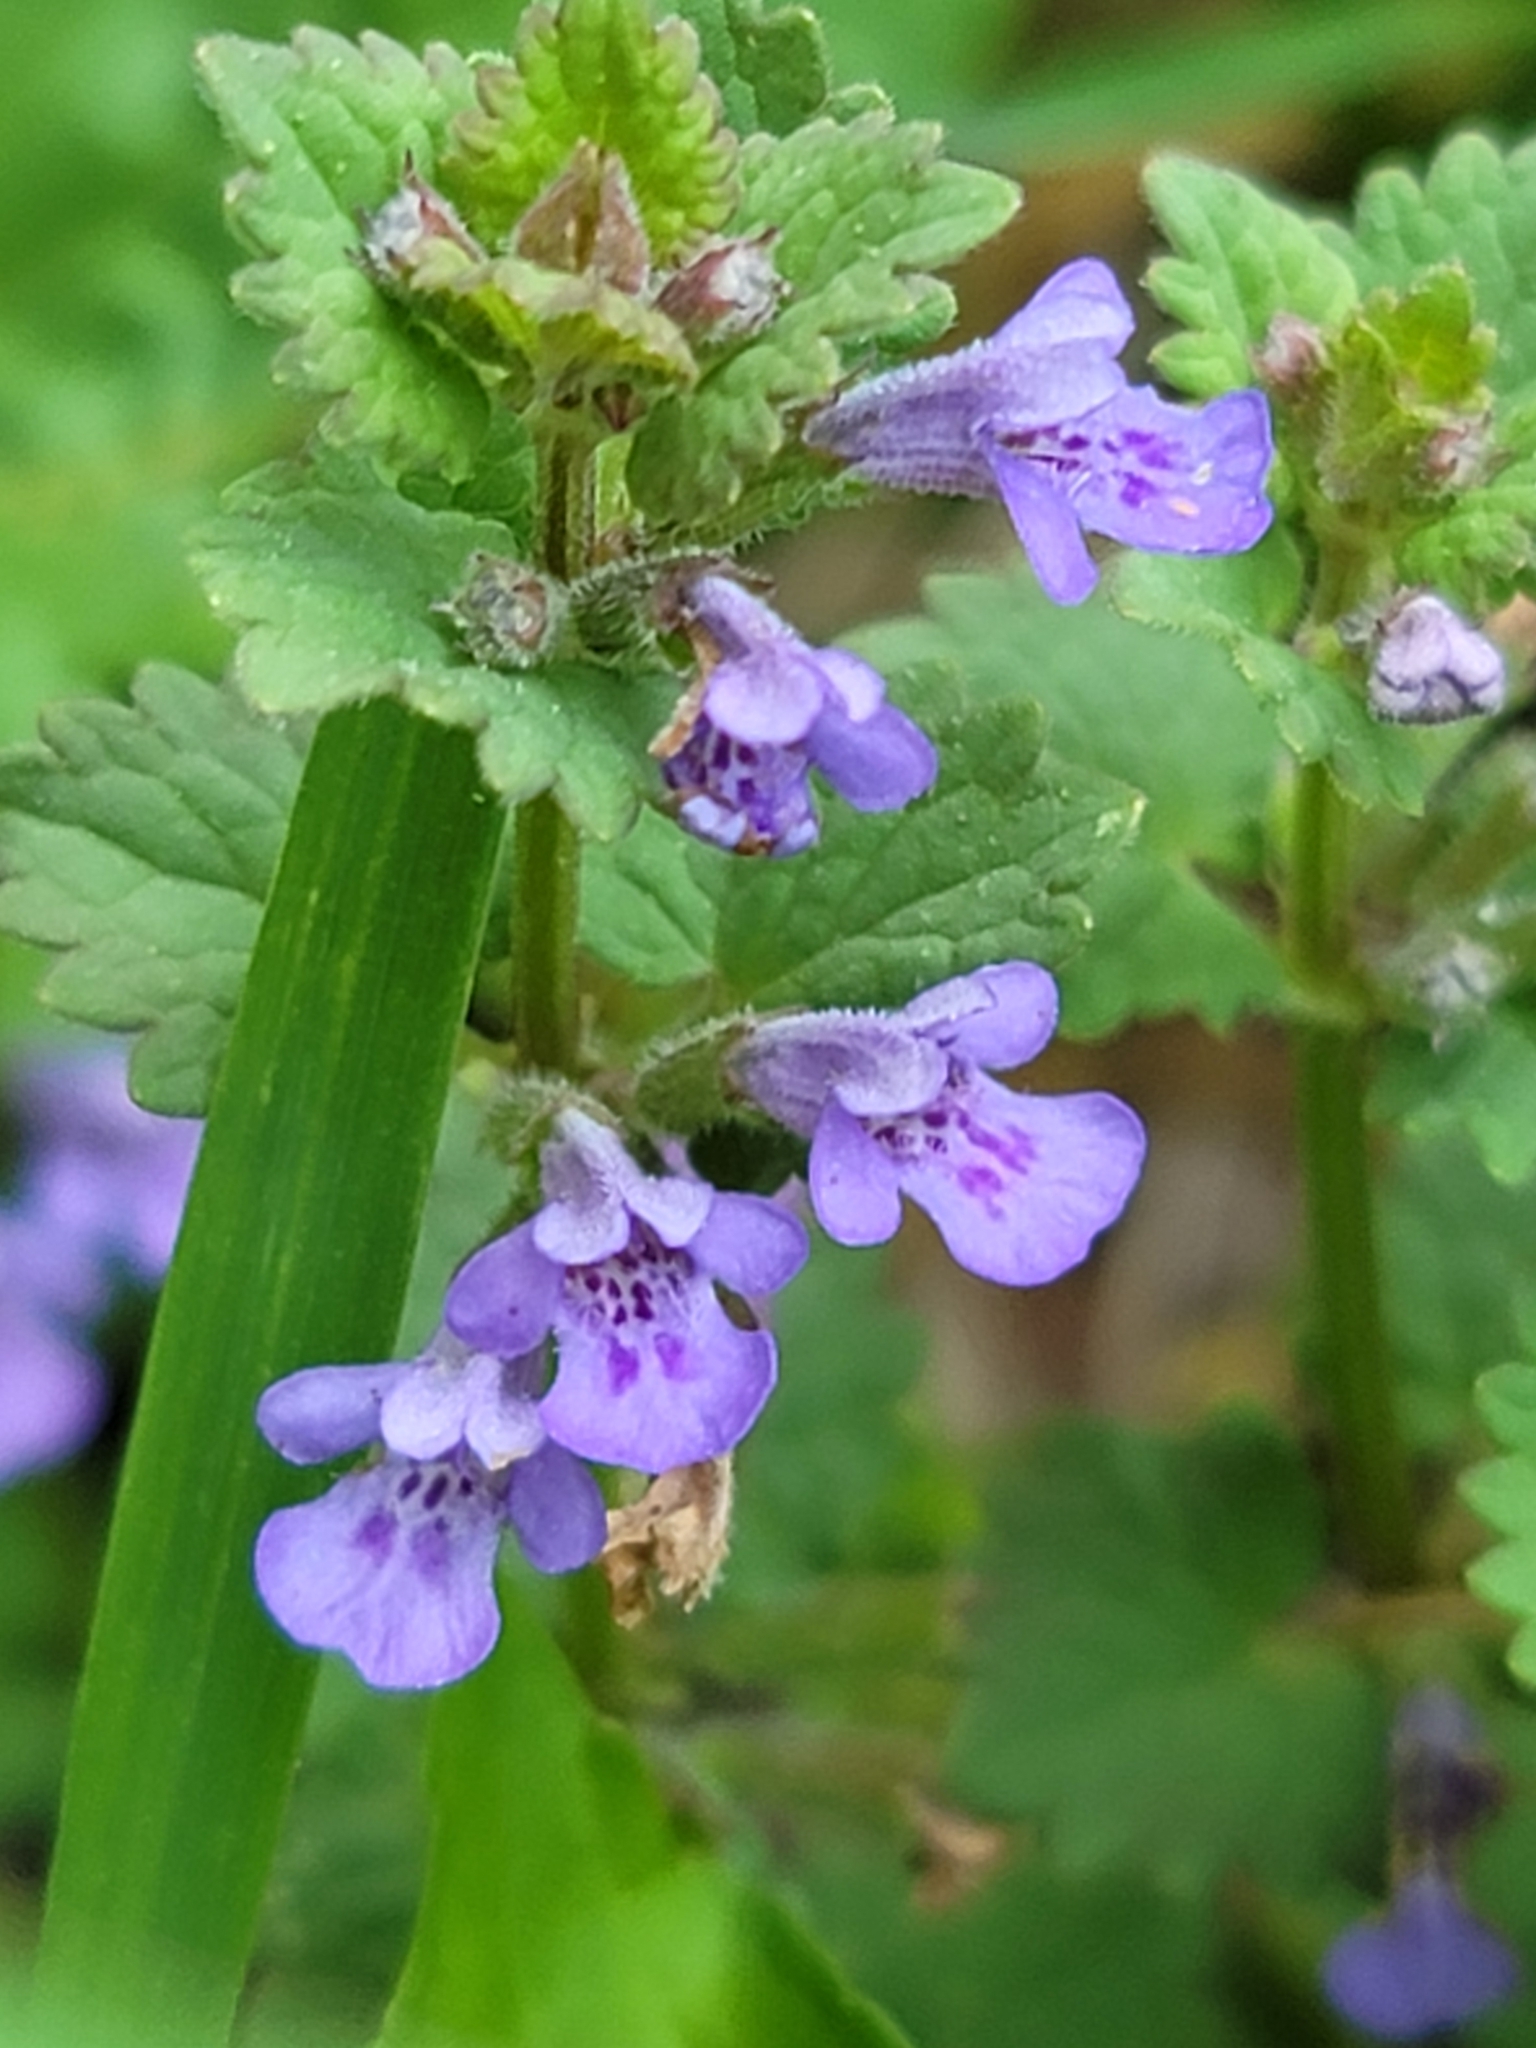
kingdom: Plantae
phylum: Tracheophyta
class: Magnoliopsida
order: Lamiales
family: Lamiaceae
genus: Glechoma
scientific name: Glechoma hederacea
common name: Ground ivy
